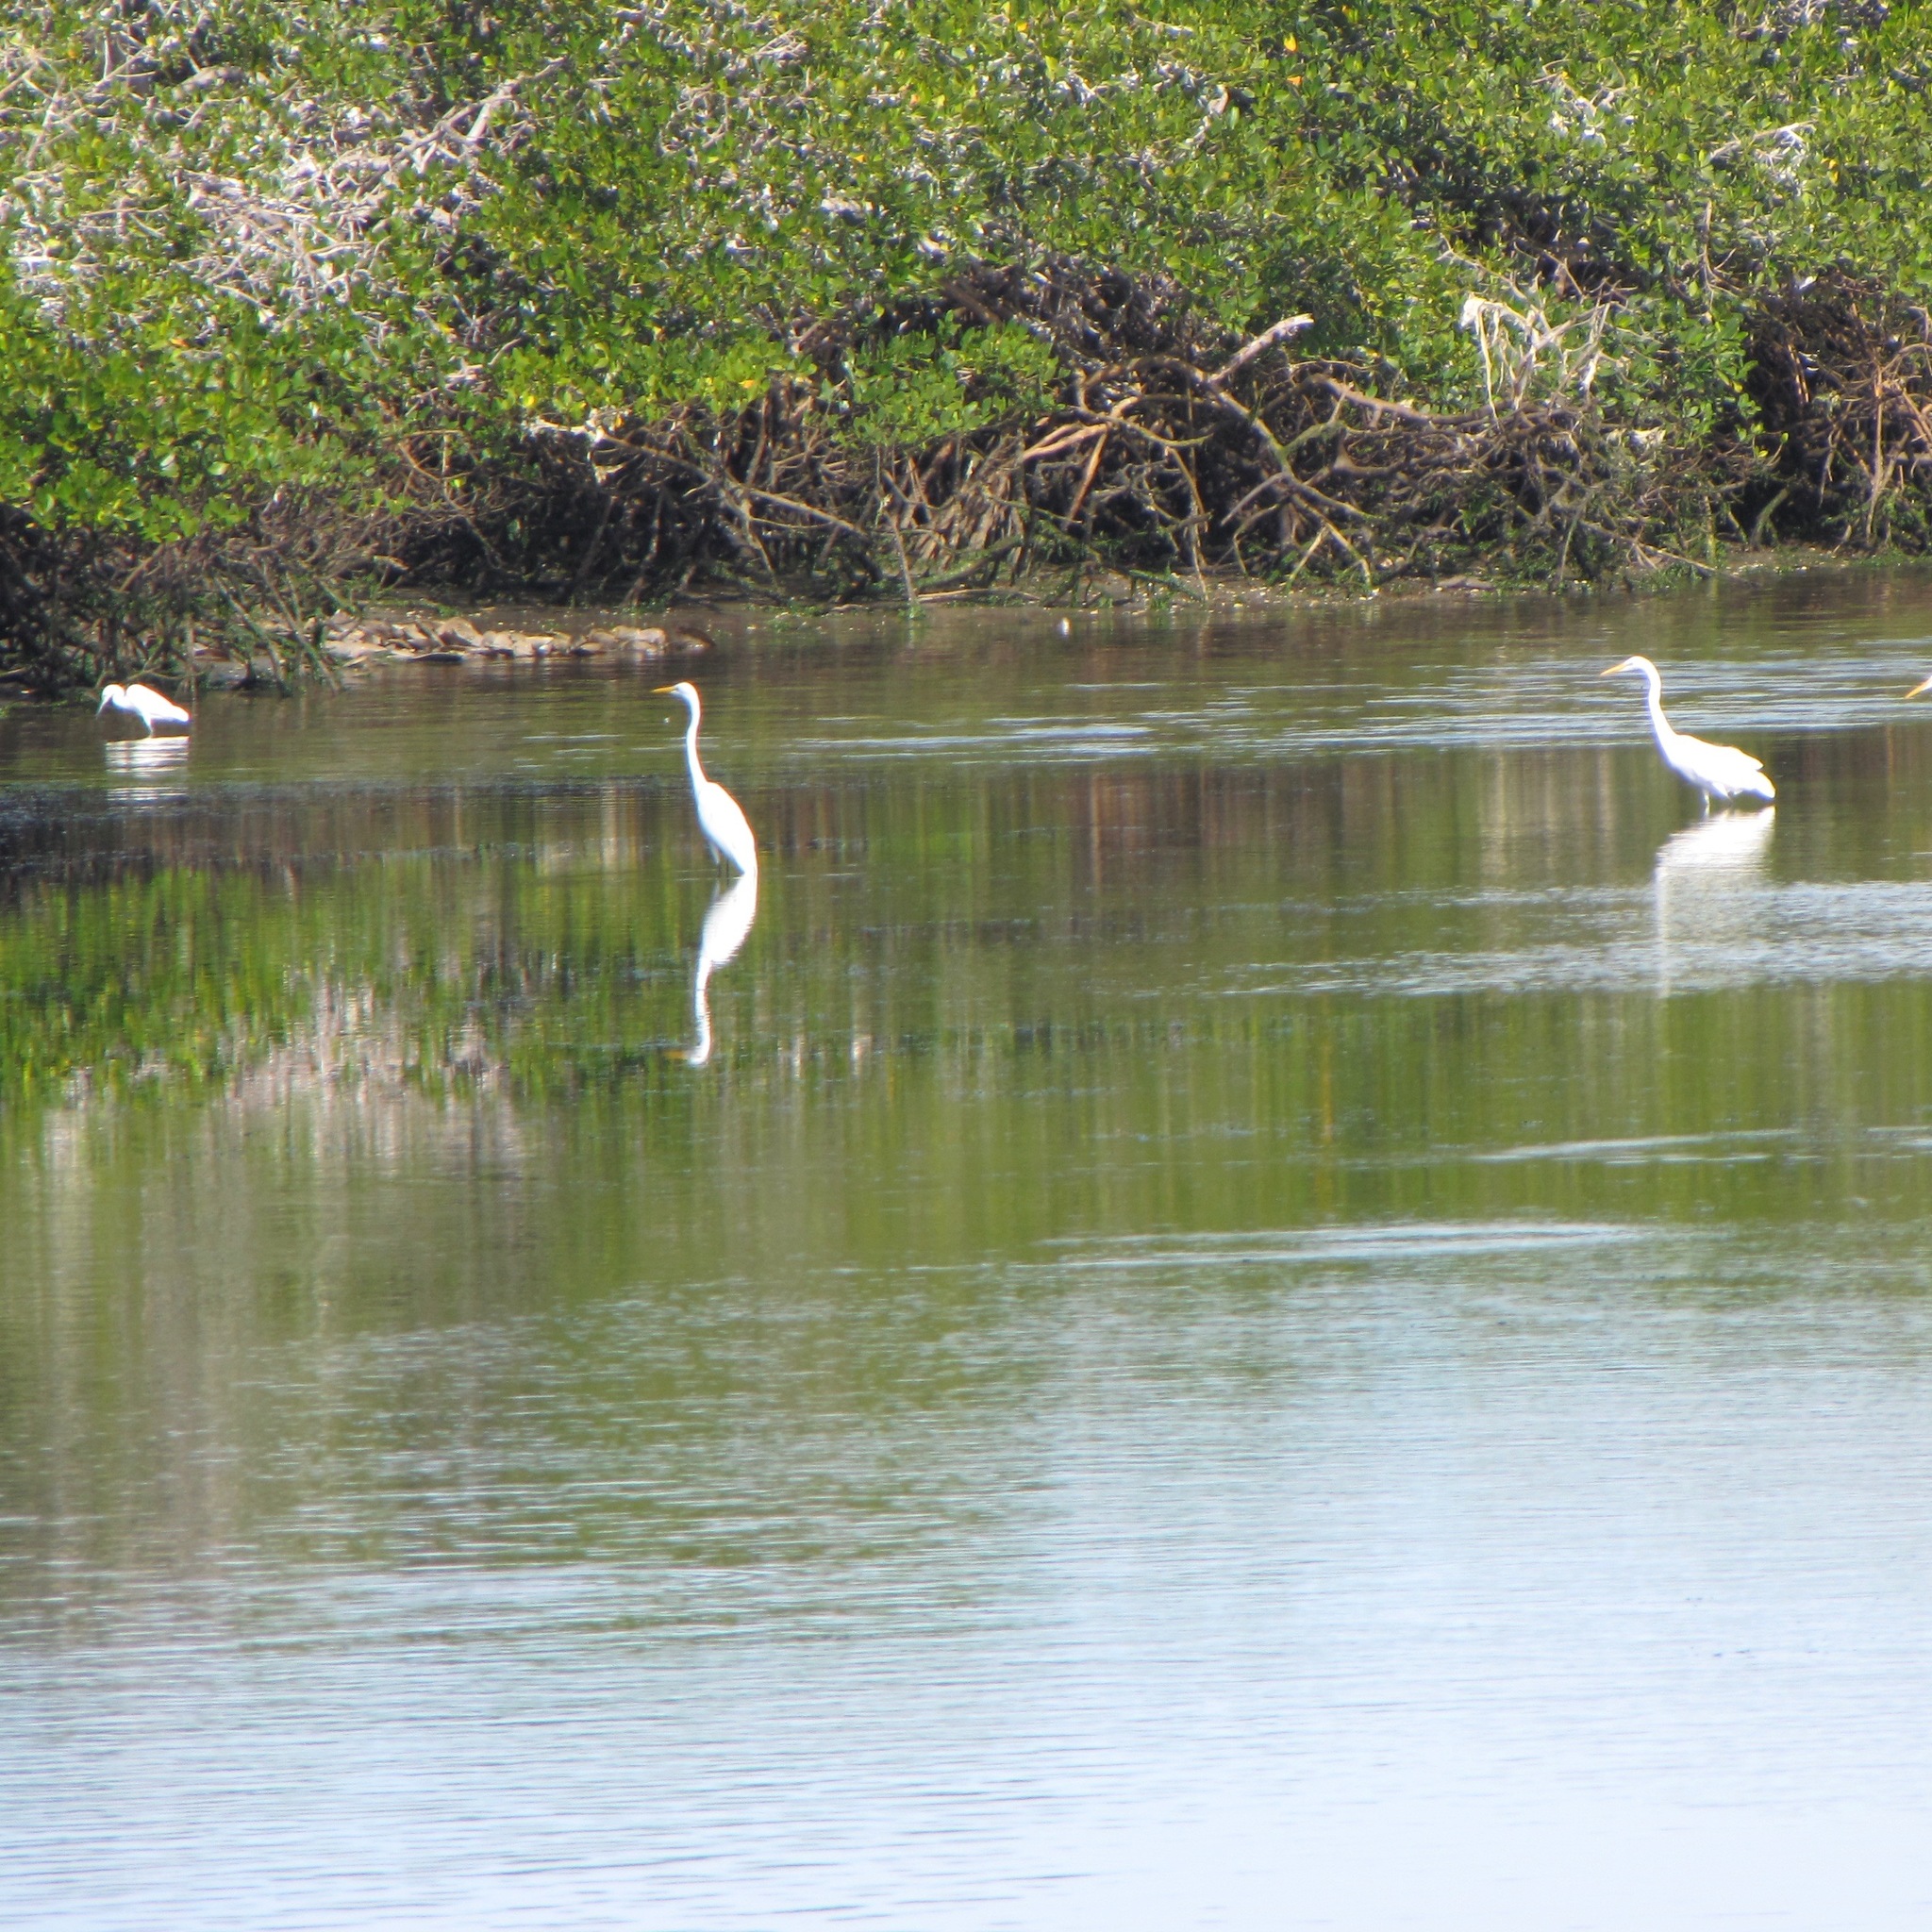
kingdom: Animalia
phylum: Chordata
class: Aves
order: Pelecaniformes
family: Ardeidae
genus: Ardea
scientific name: Ardea alba
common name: Great egret
